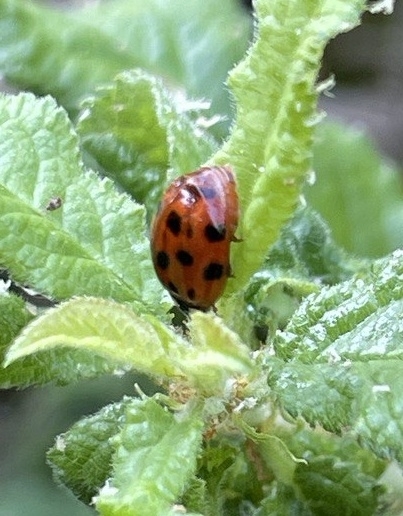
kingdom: Animalia
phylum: Arthropoda
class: Insecta
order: Coleoptera
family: Coccinellidae
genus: Harmonia
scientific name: Harmonia axyridis
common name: Harlequin ladybird
